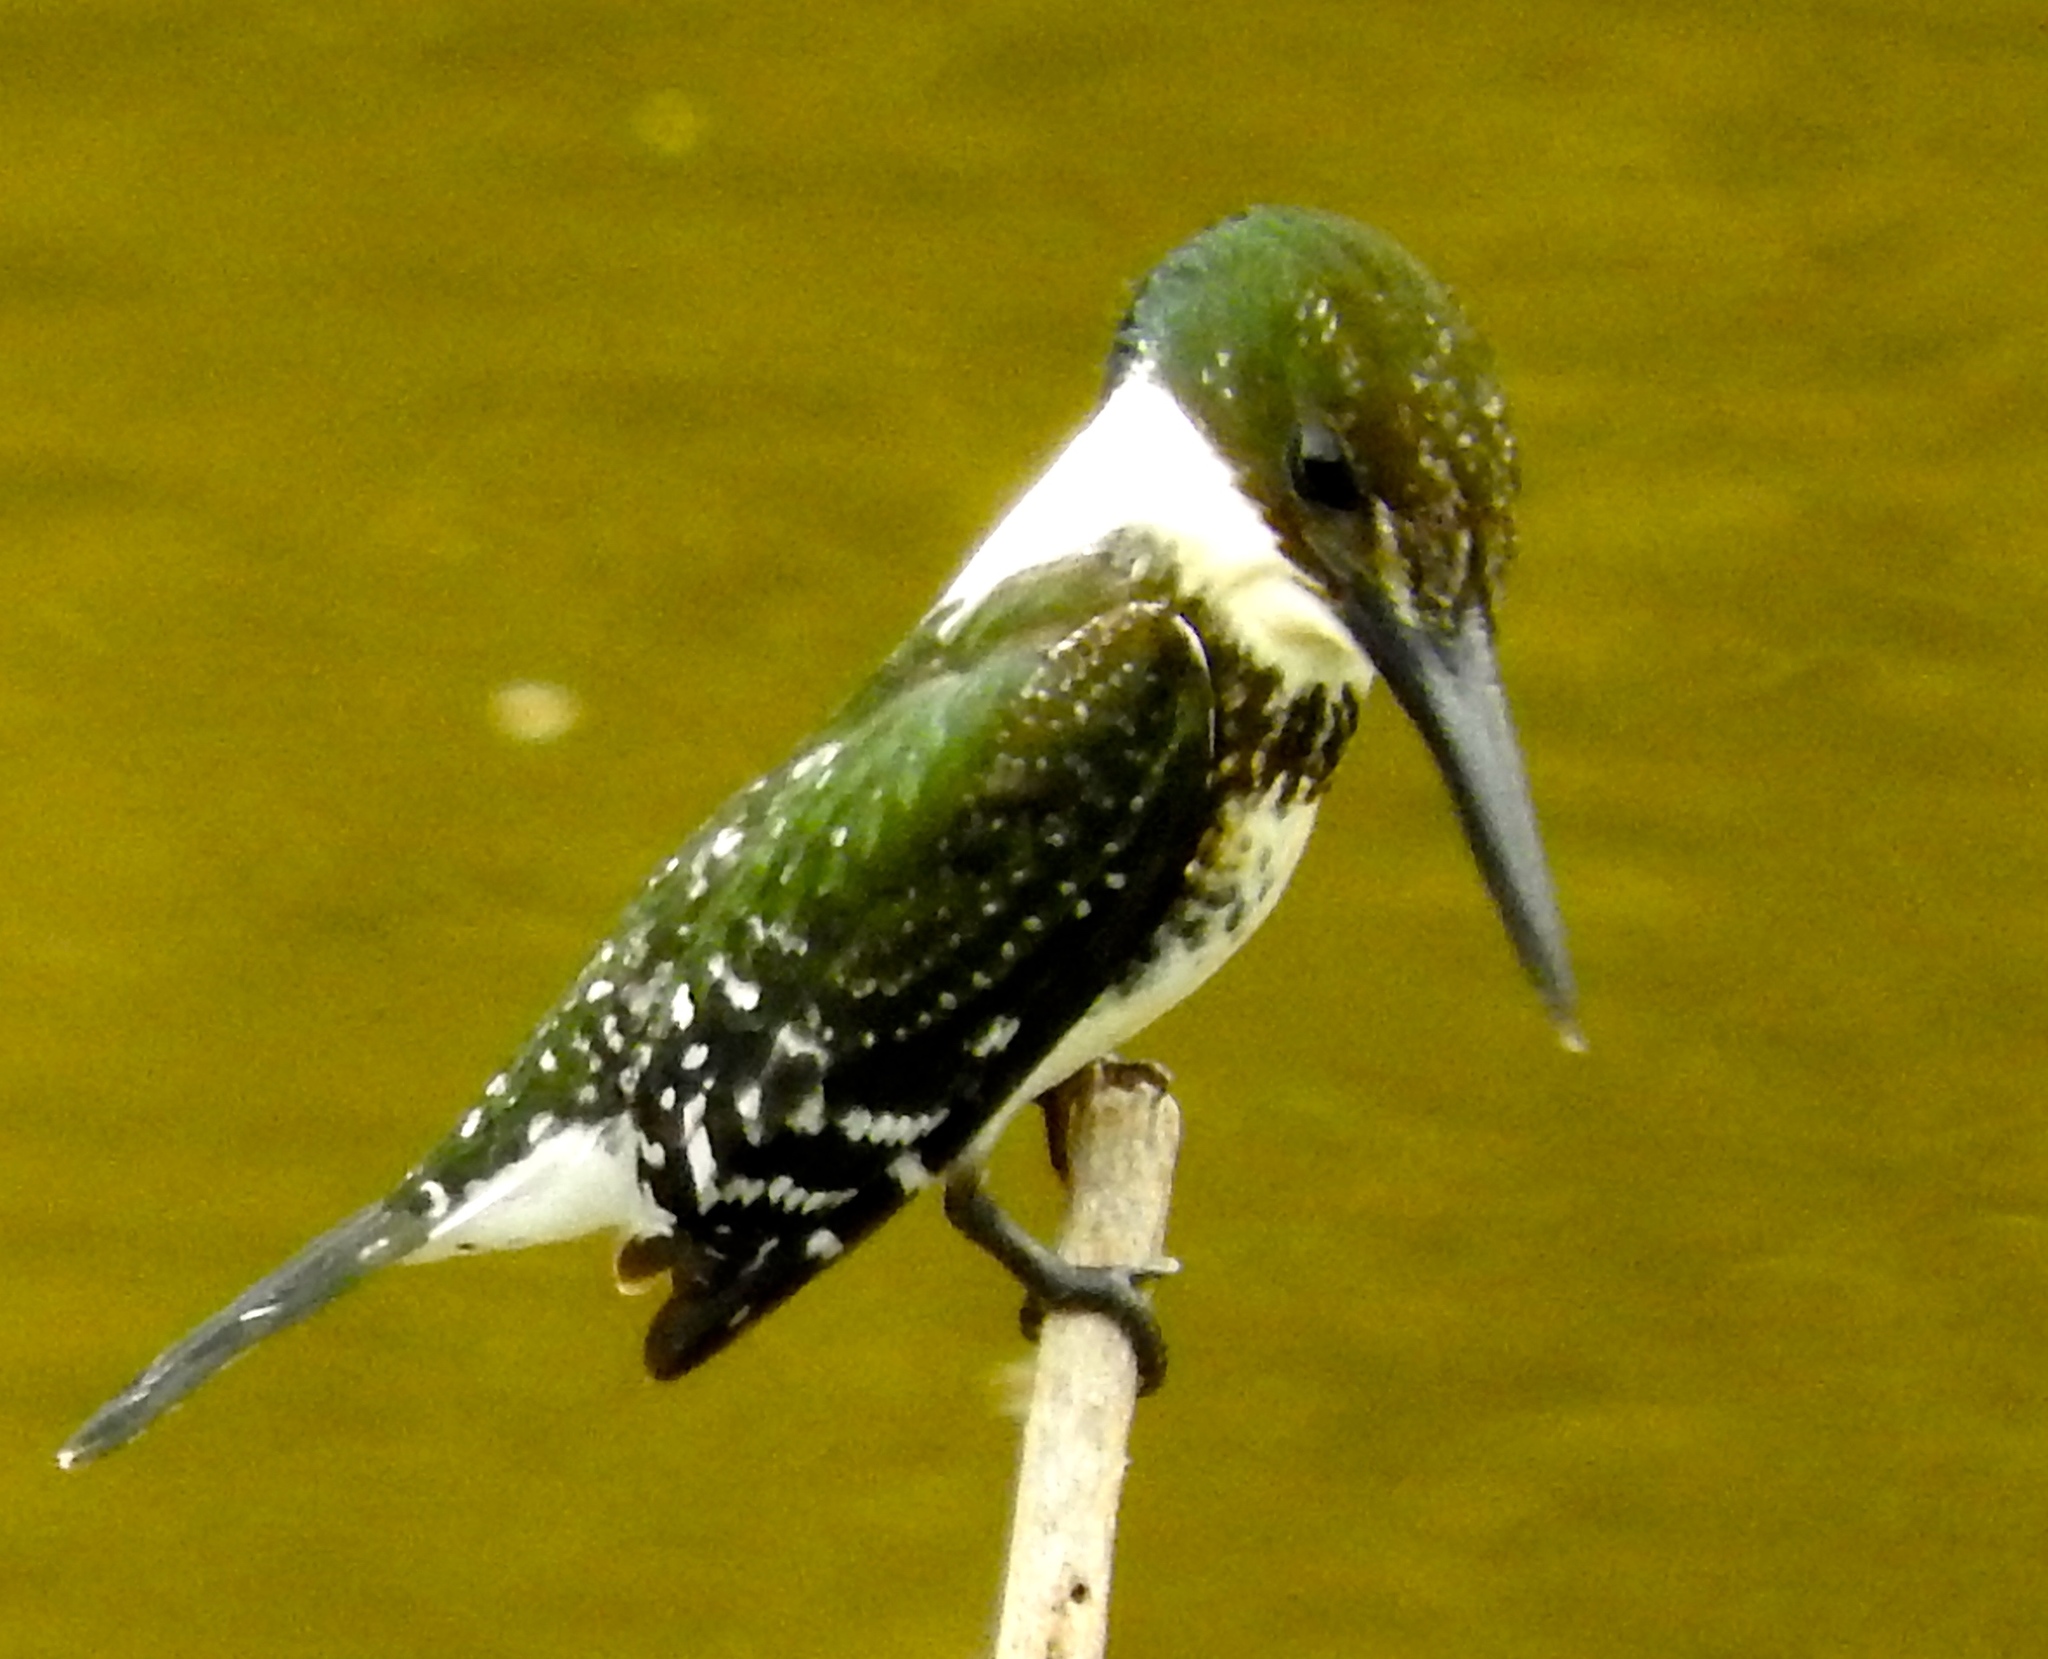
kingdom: Animalia
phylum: Chordata
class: Aves
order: Coraciiformes
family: Alcedinidae
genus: Chloroceryle
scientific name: Chloroceryle americana
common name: Green kingfisher
